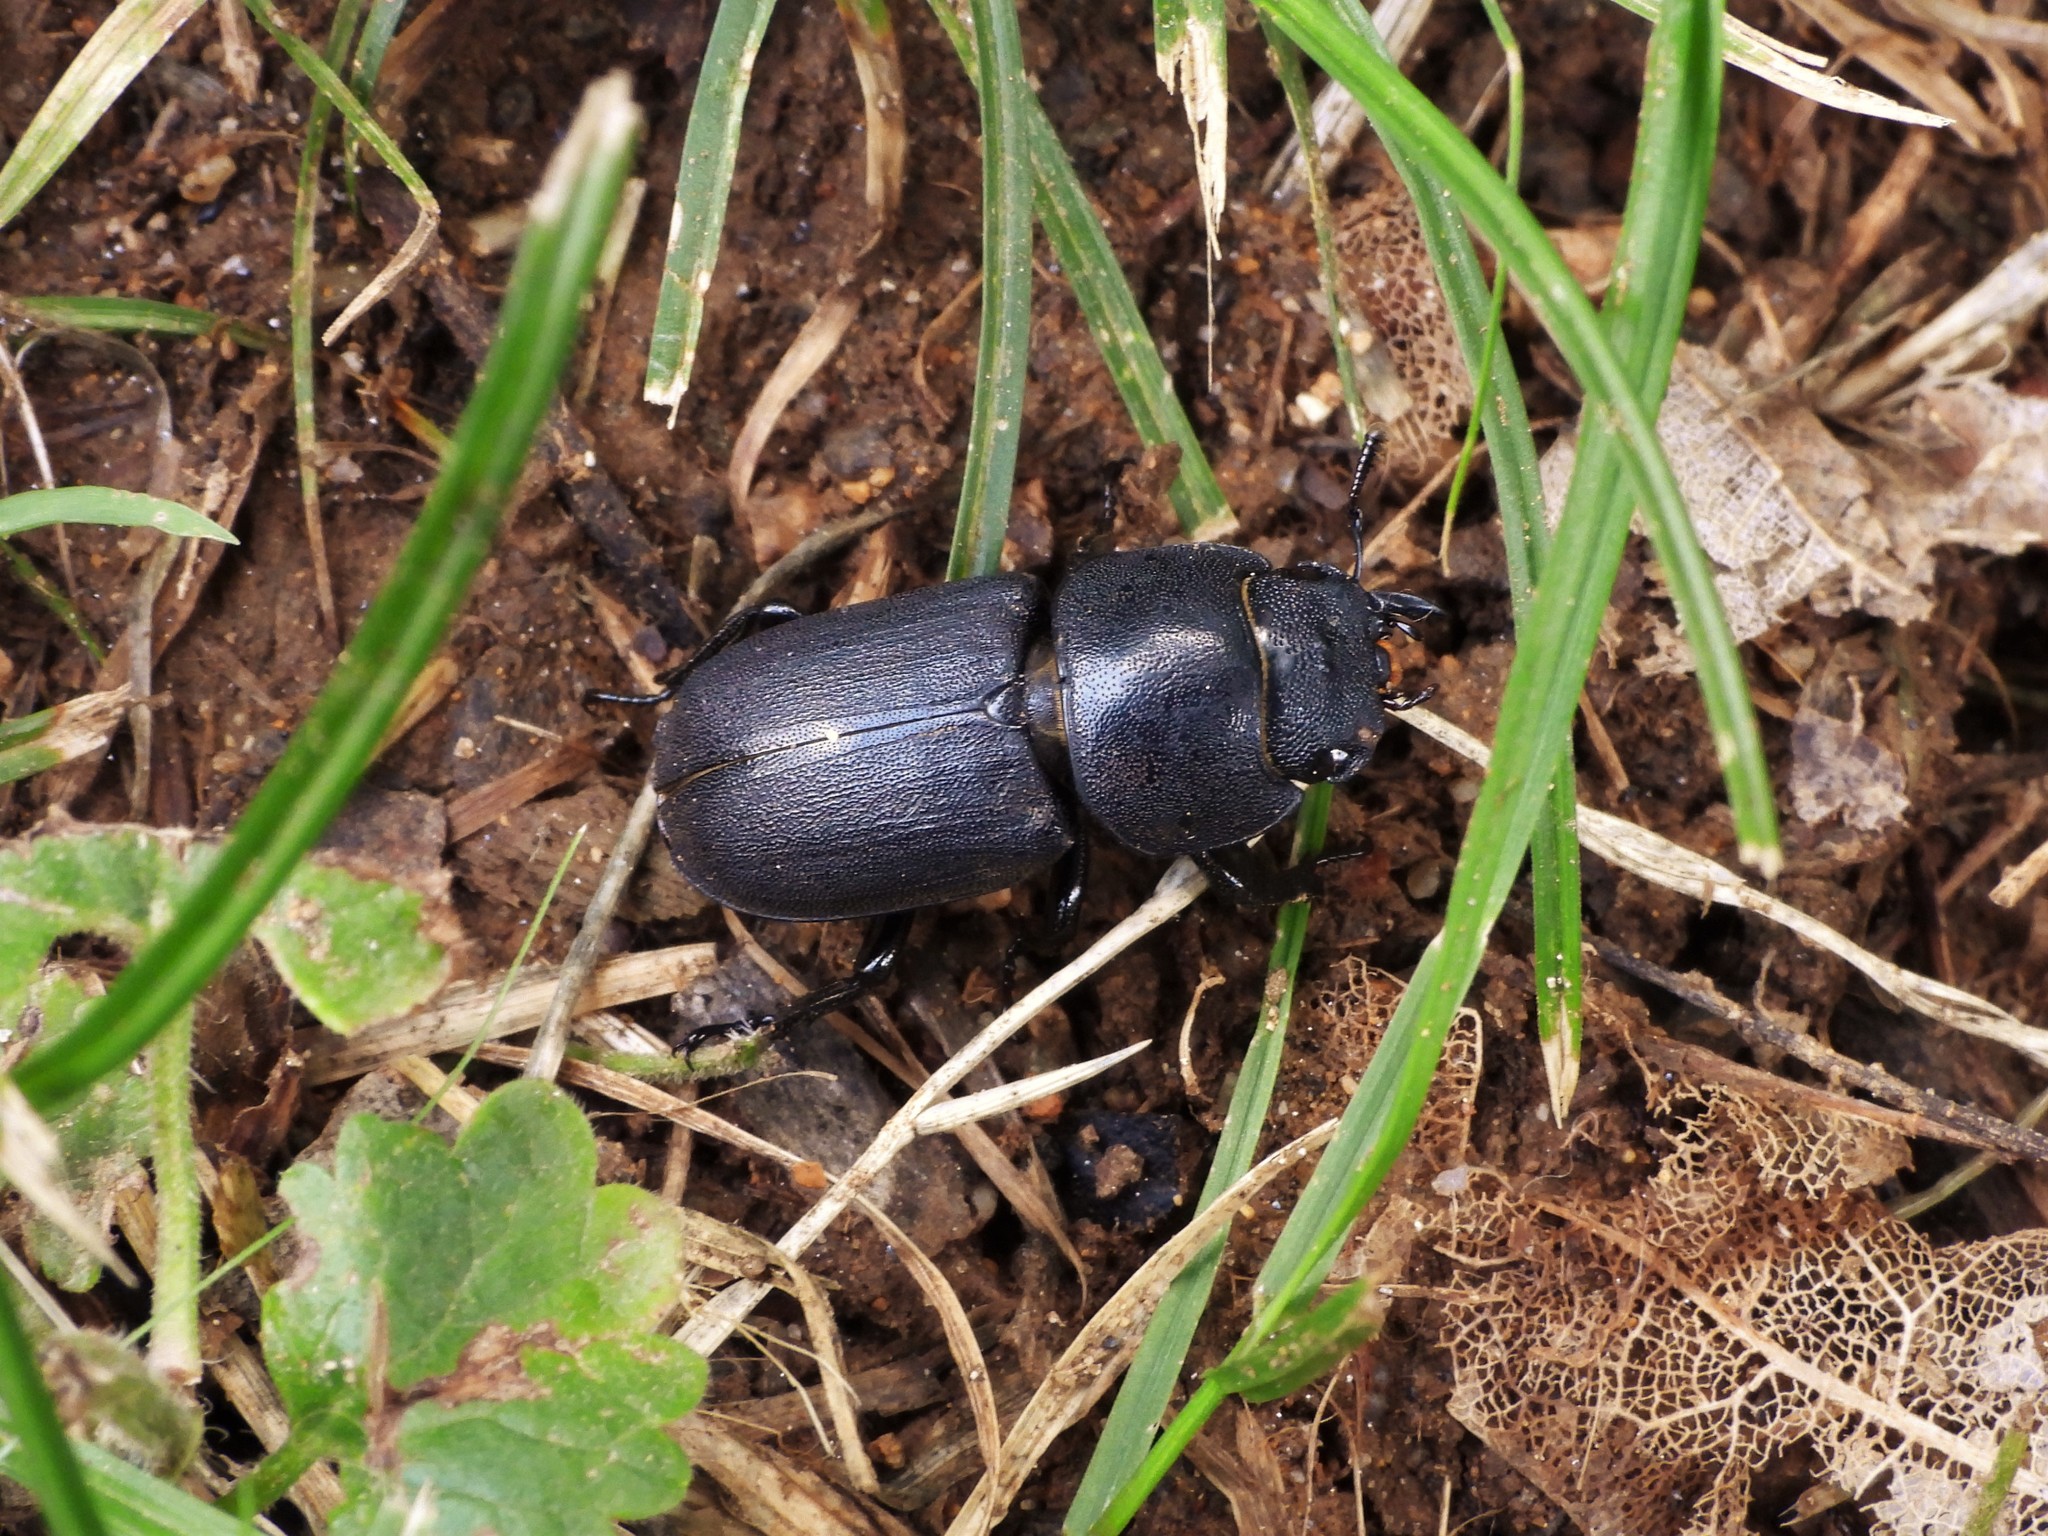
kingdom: Animalia
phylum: Arthropoda
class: Insecta
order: Coleoptera
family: Lucanidae
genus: Dorcus
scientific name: Dorcus parallelipipedus
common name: Lesser stag beetle
